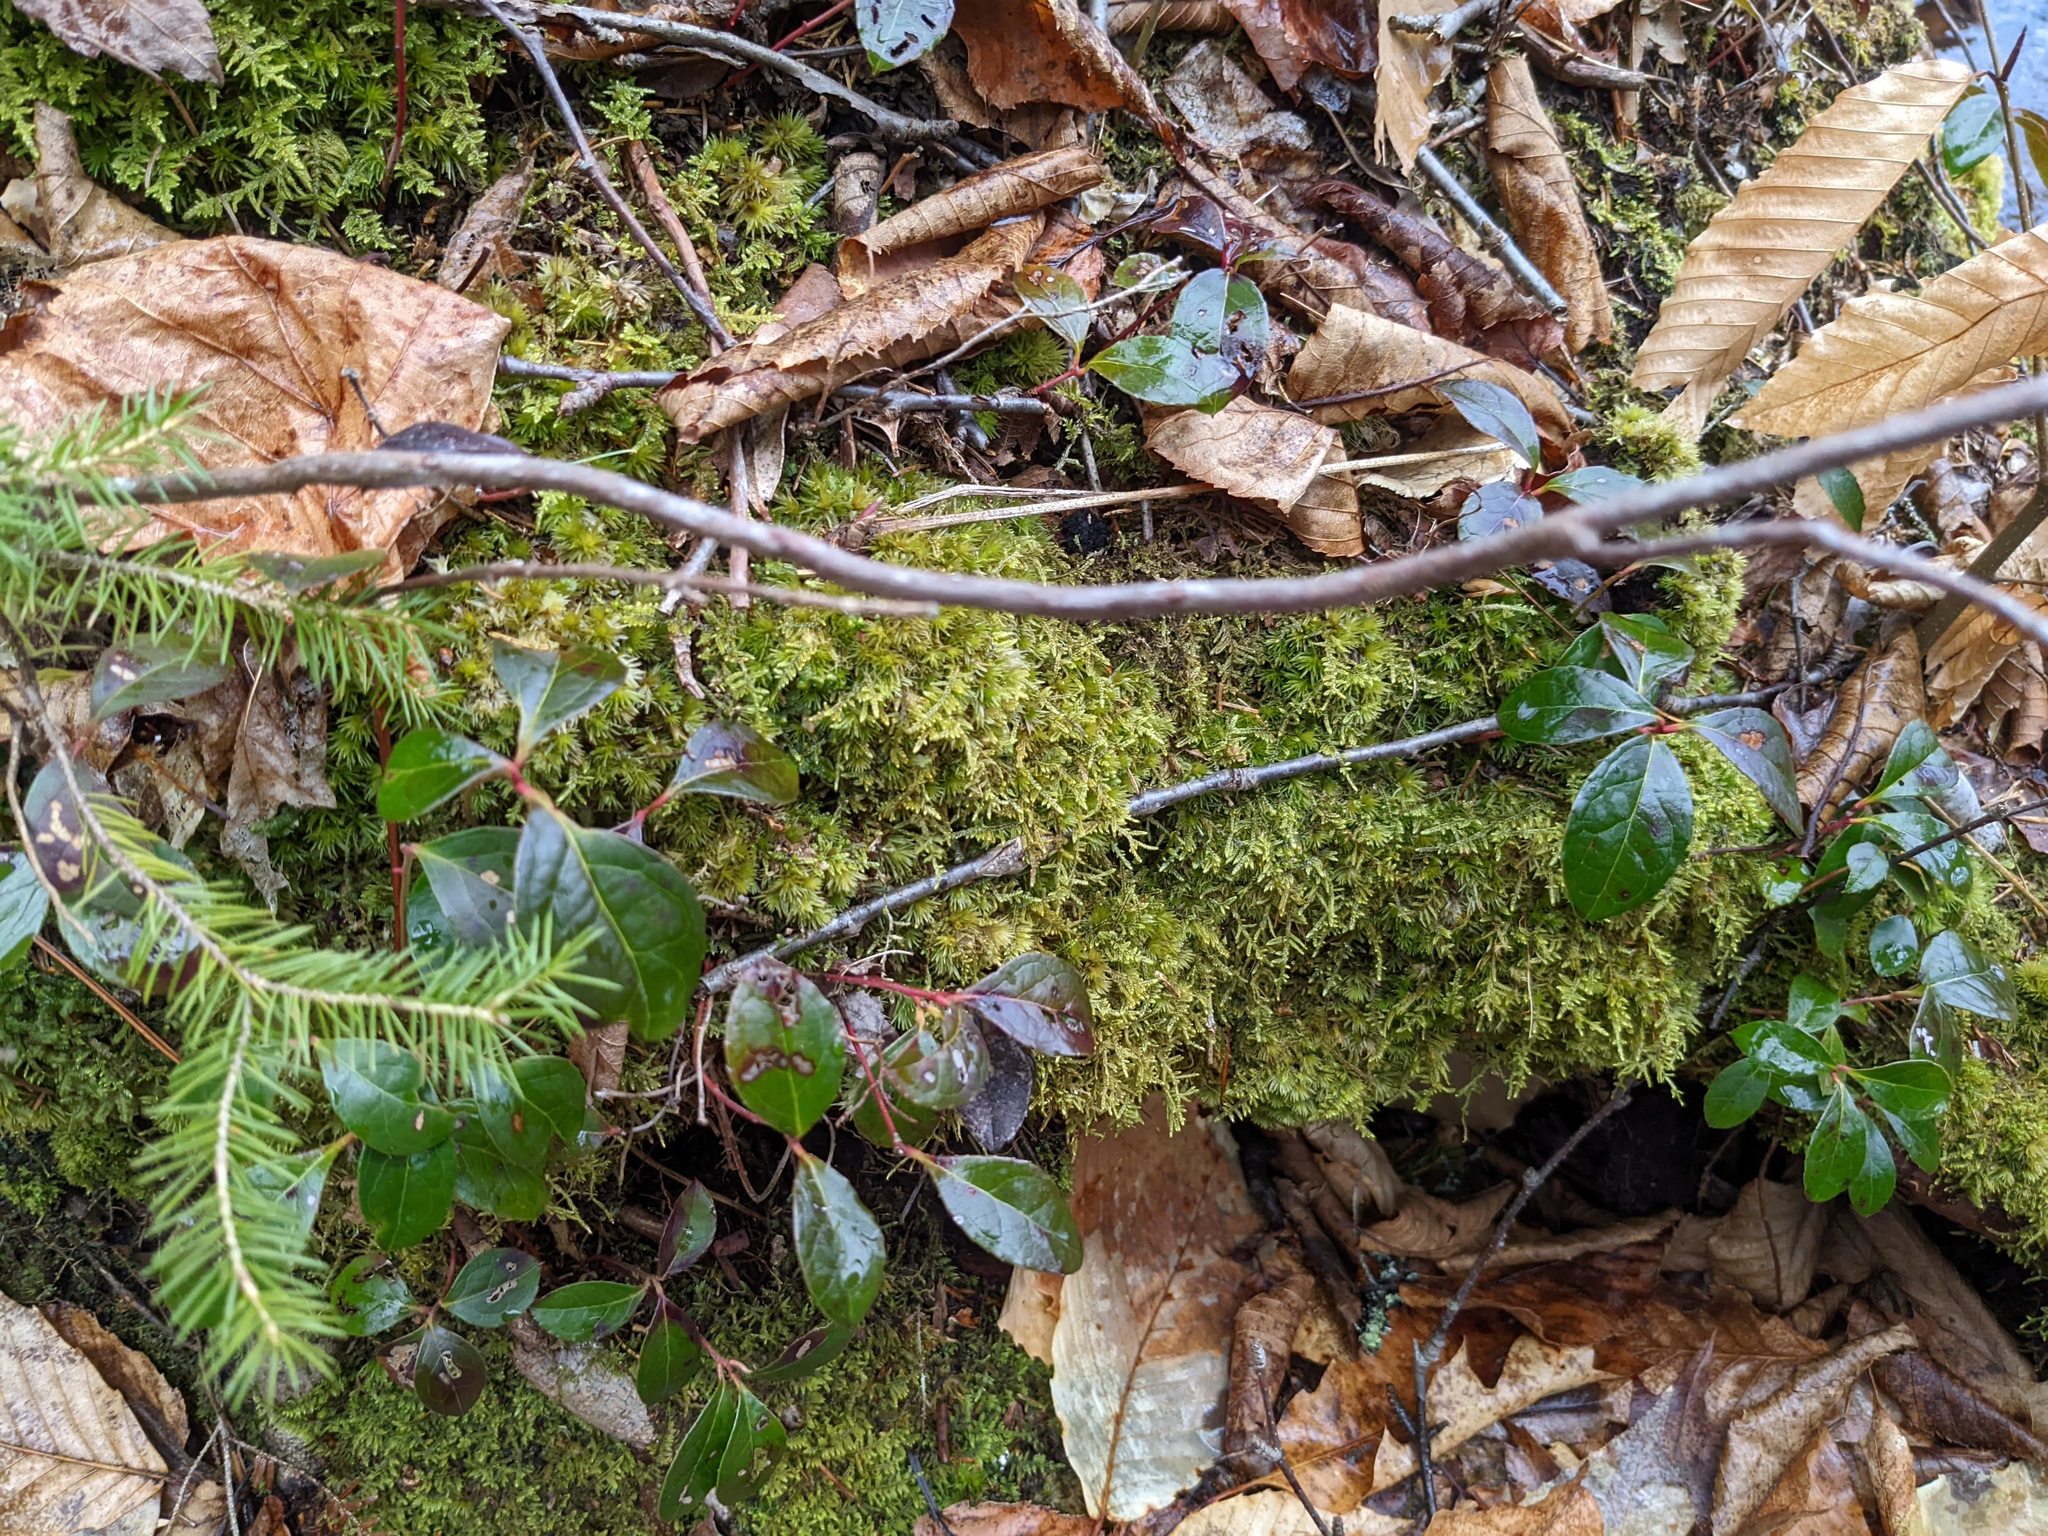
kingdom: Plantae
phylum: Tracheophyta
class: Magnoliopsida
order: Fagales
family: Fagaceae
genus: Fagus
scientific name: Fagus grandifolia
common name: American beech
